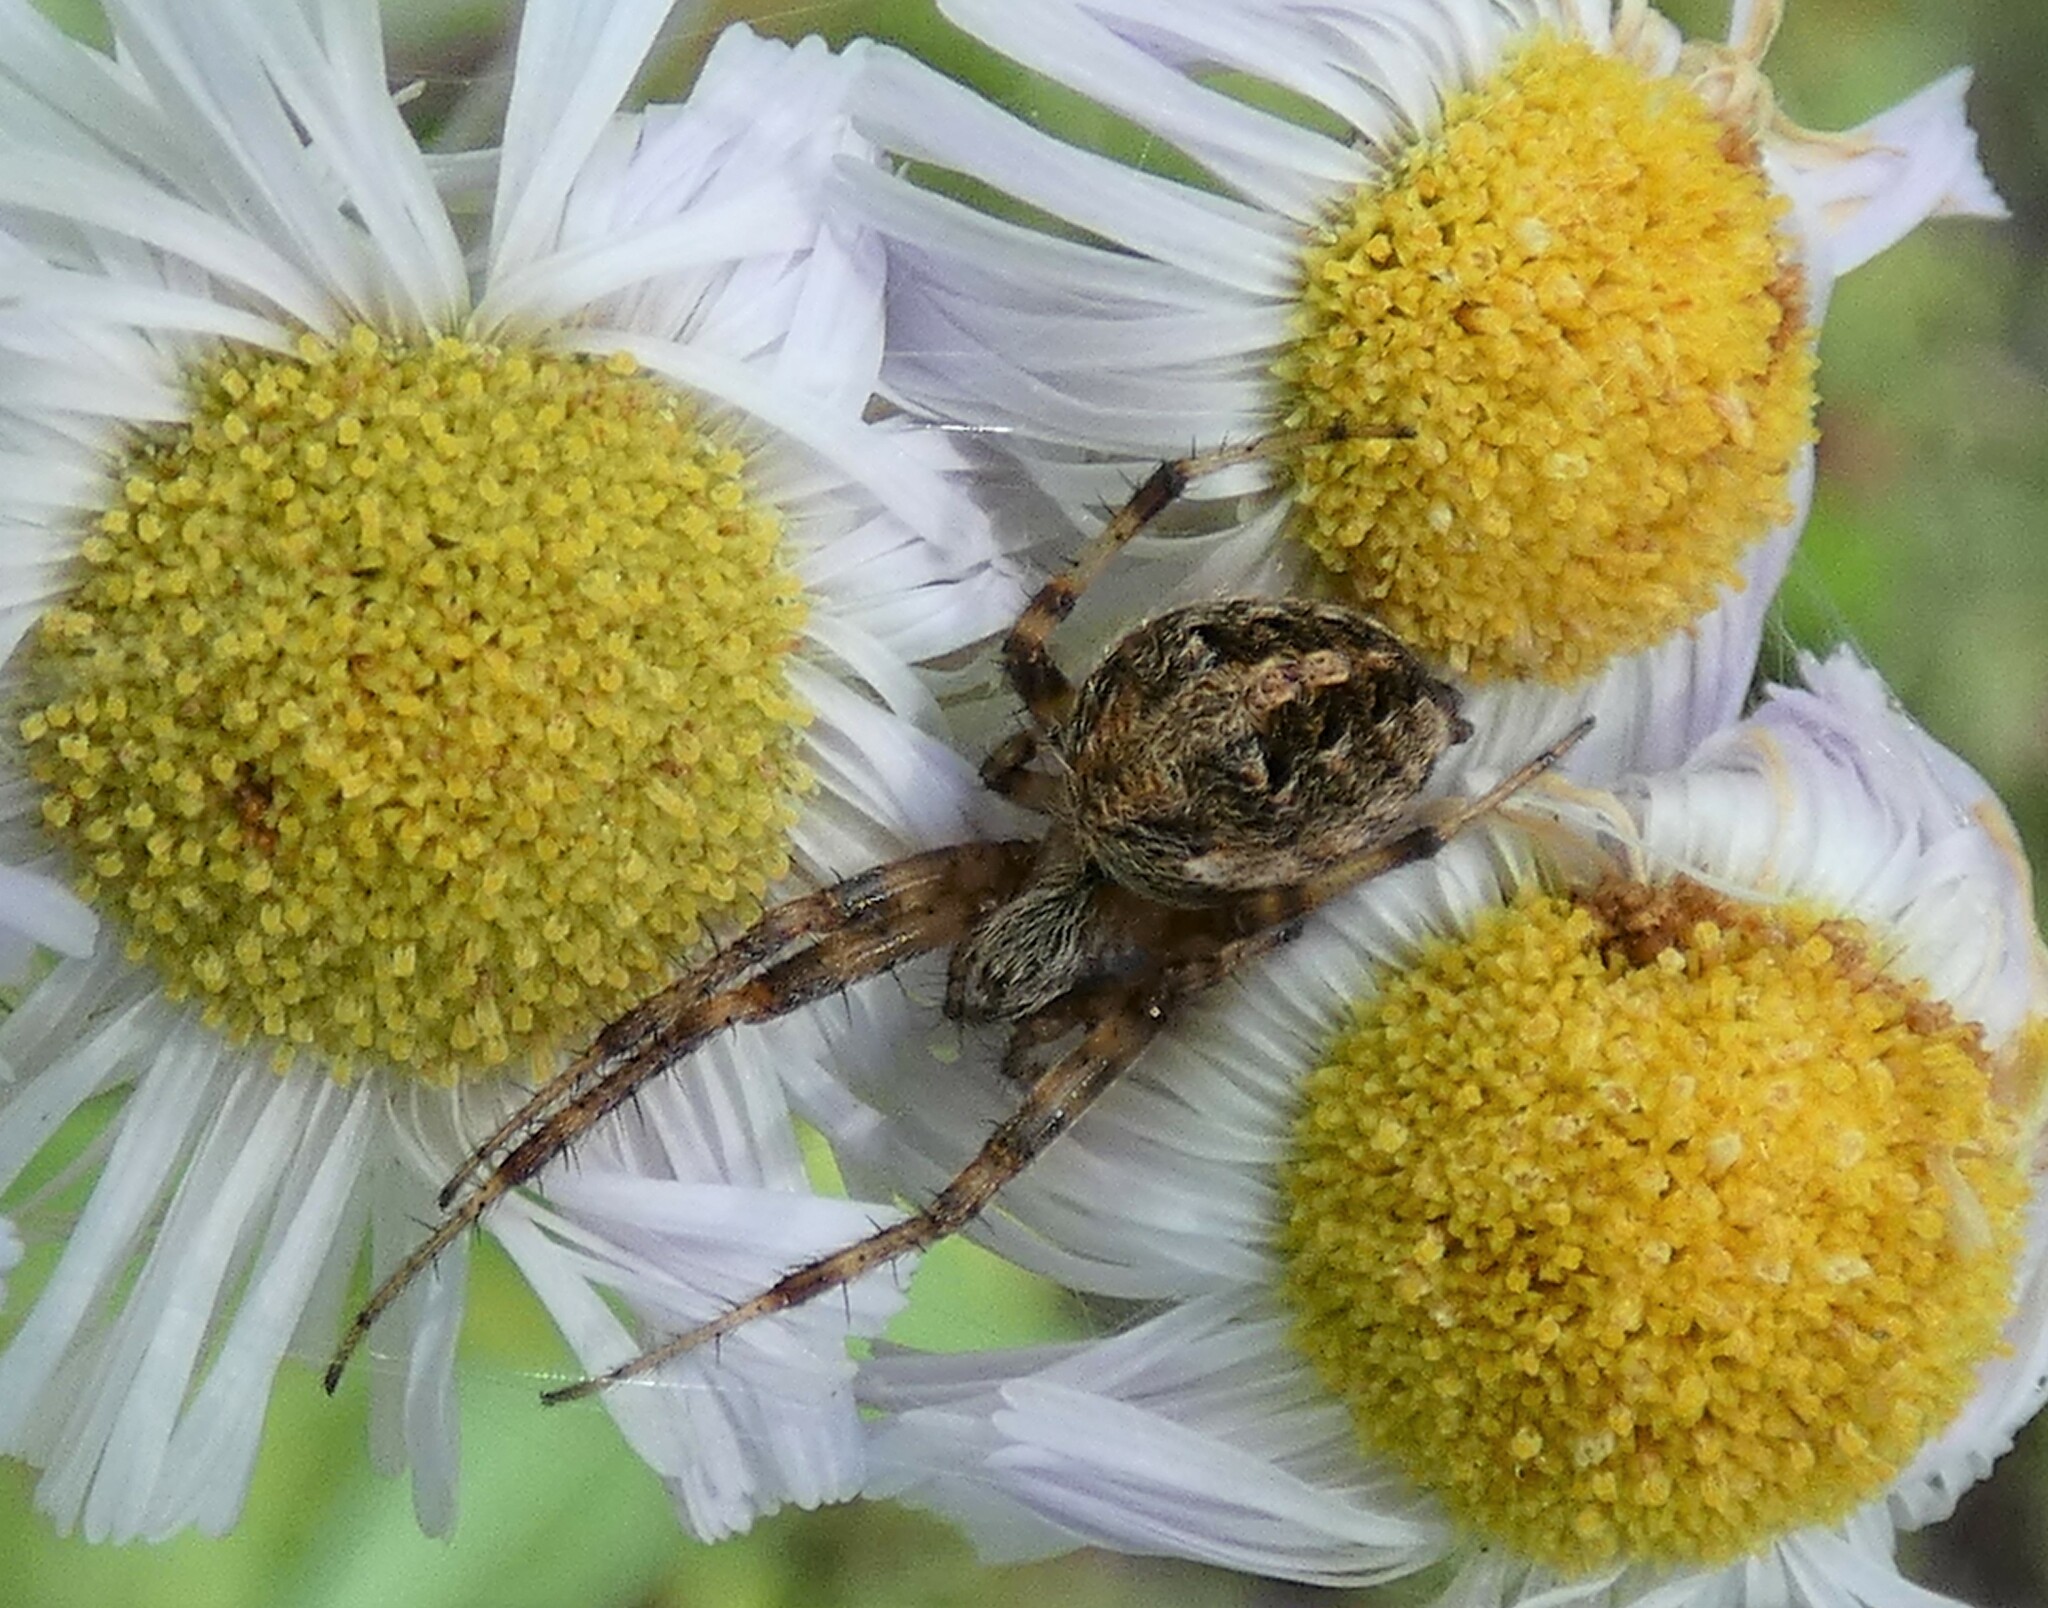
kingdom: Animalia
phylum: Arthropoda
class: Arachnida
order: Araneae
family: Araneidae
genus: Neoscona
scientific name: Neoscona arabesca
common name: Orb weavers
